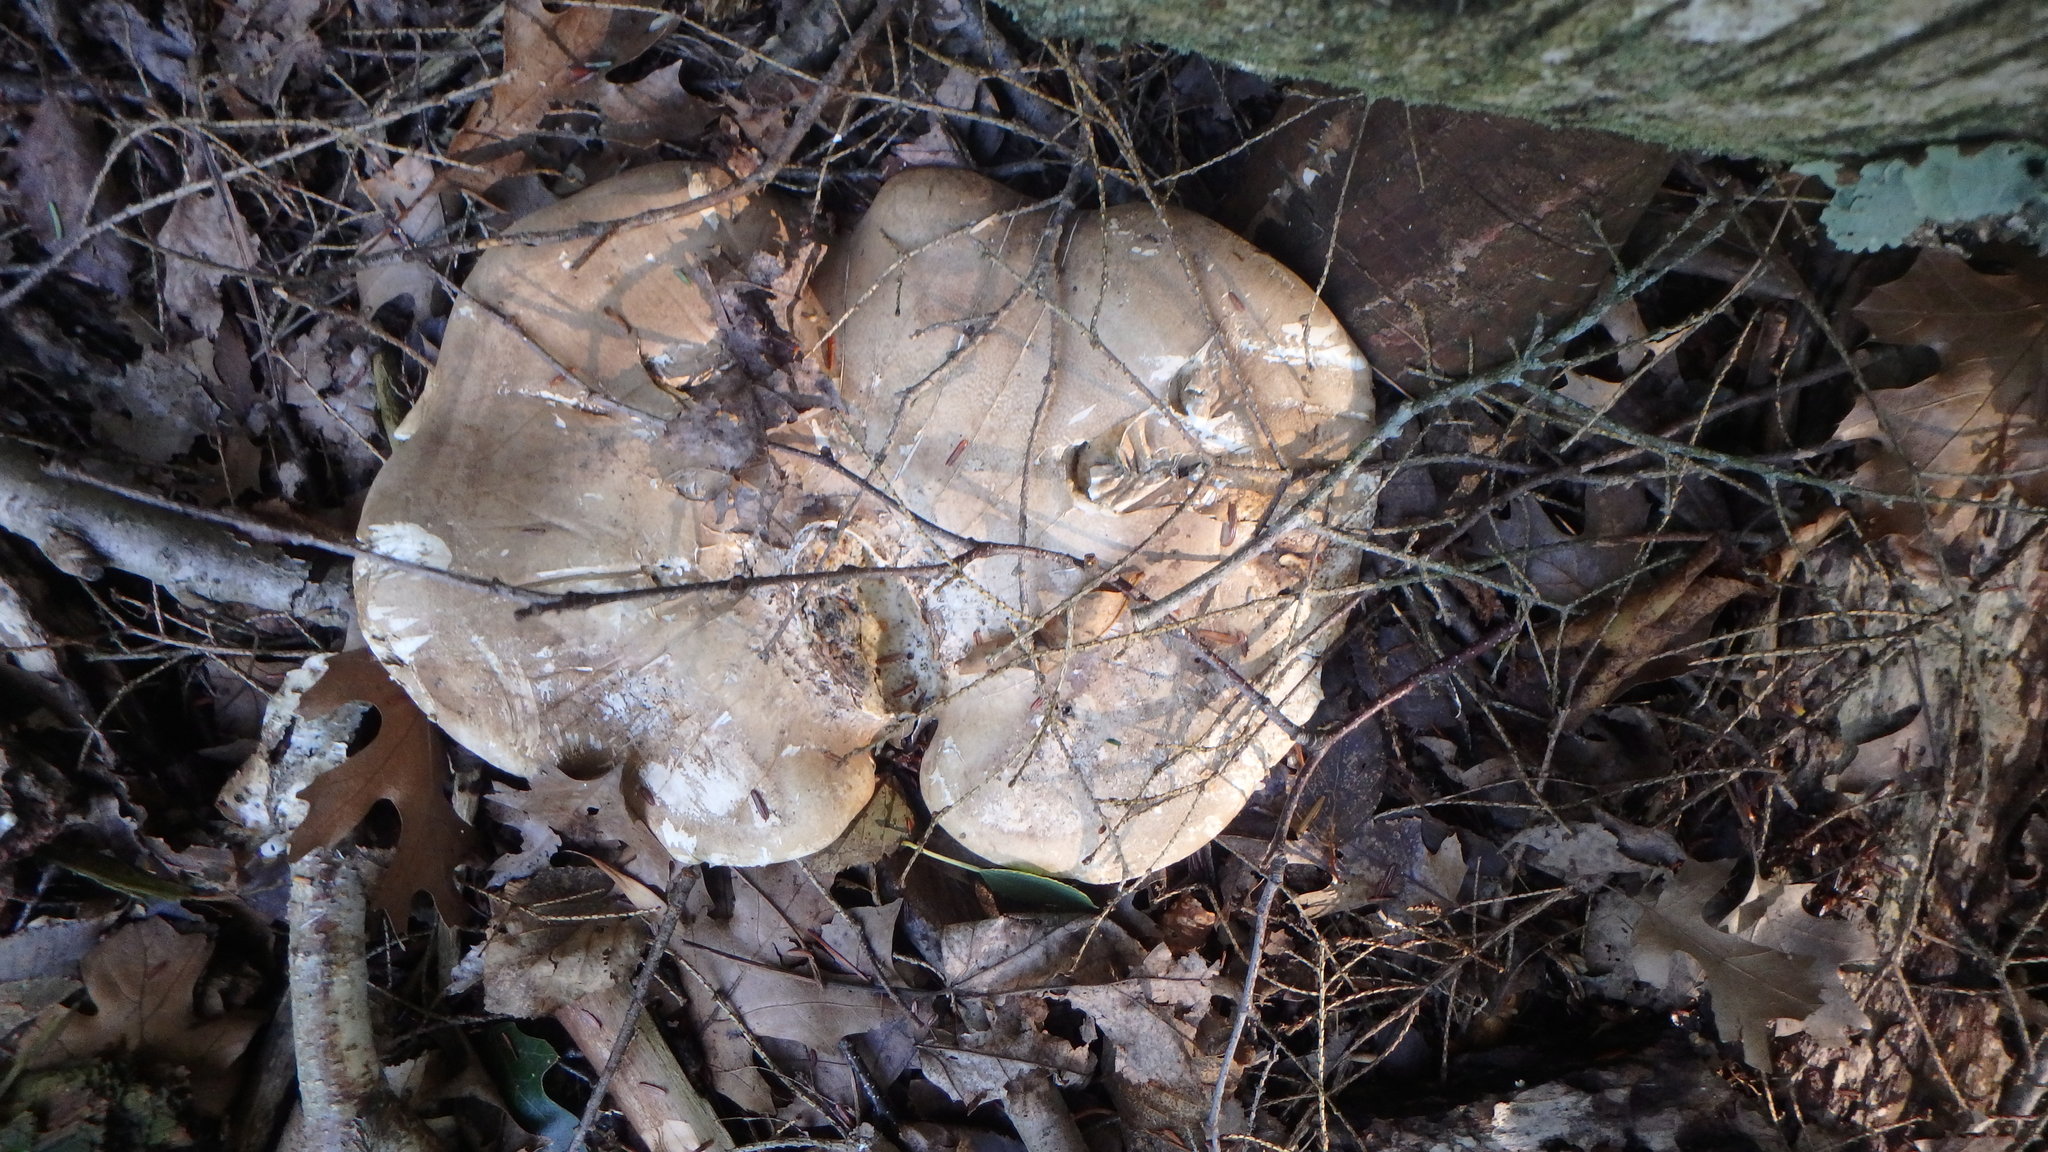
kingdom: Fungi
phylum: Basidiomycota
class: Agaricomycetes
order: Polyporales
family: Fomitopsidaceae
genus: Fomitopsis
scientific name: Fomitopsis betulina
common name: Birch polypore
